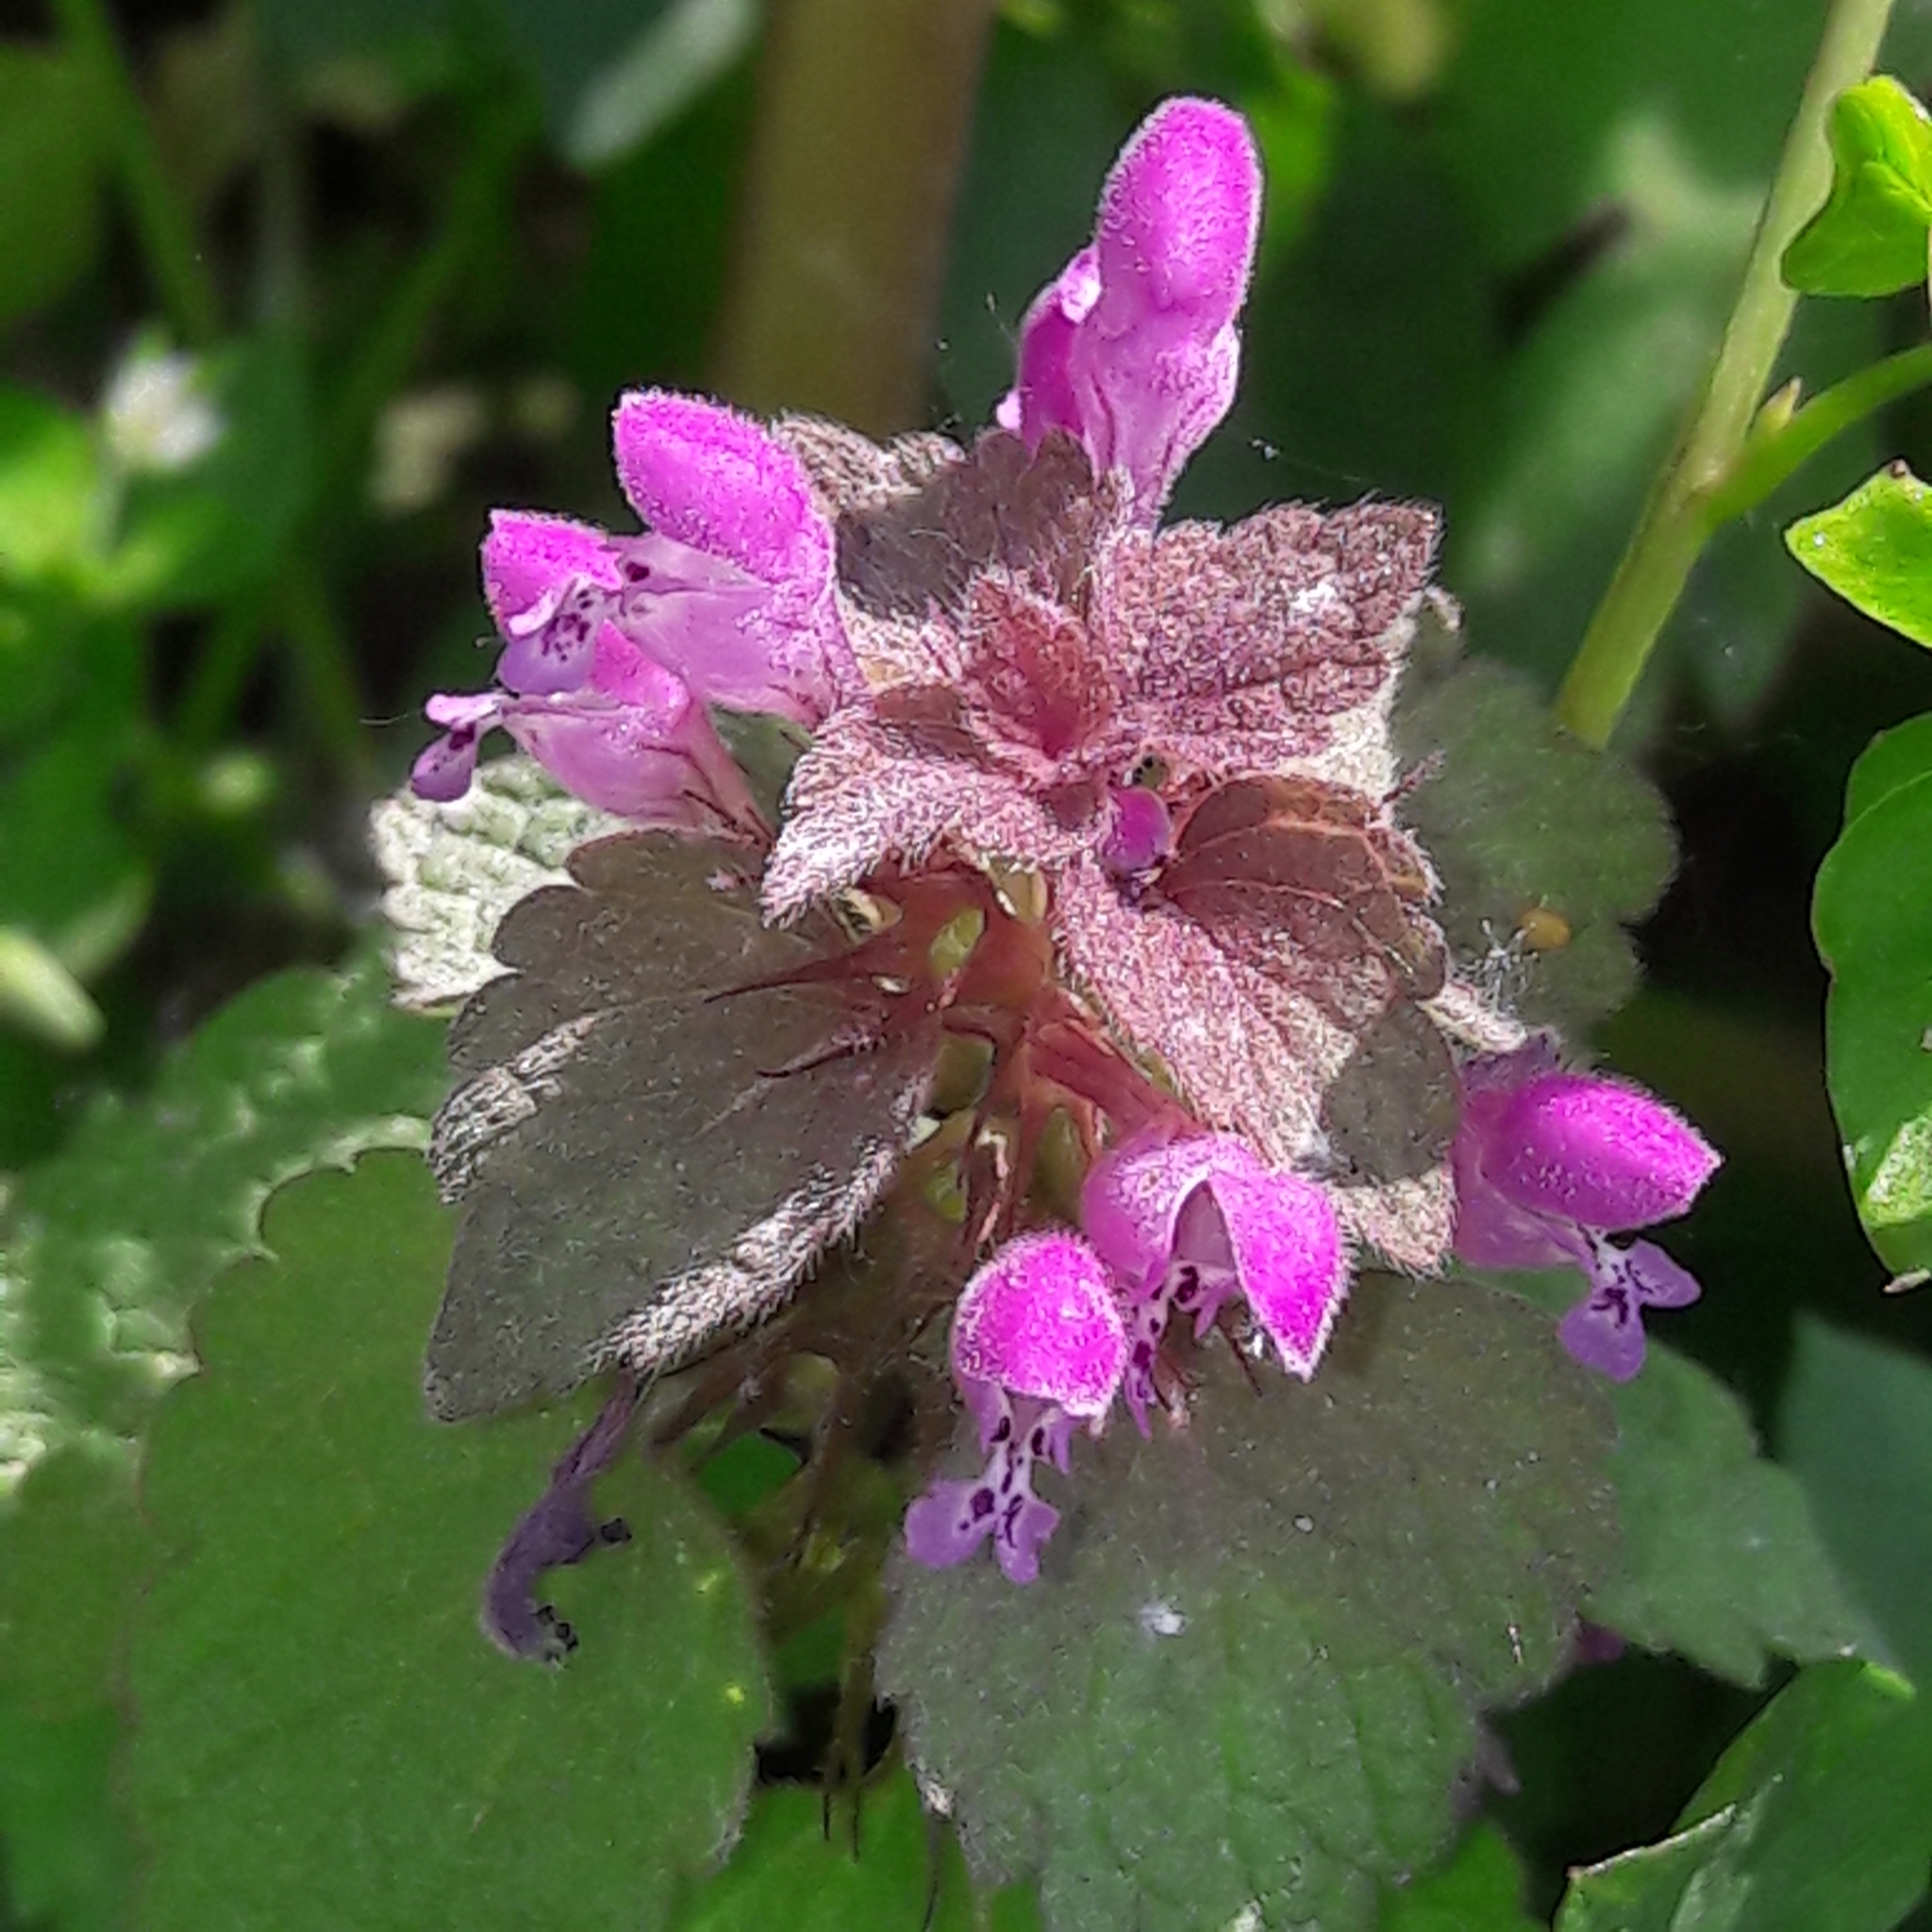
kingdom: Plantae
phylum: Tracheophyta
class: Magnoliopsida
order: Lamiales
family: Lamiaceae
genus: Lamium
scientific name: Lamium purpureum
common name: Red dead-nettle
